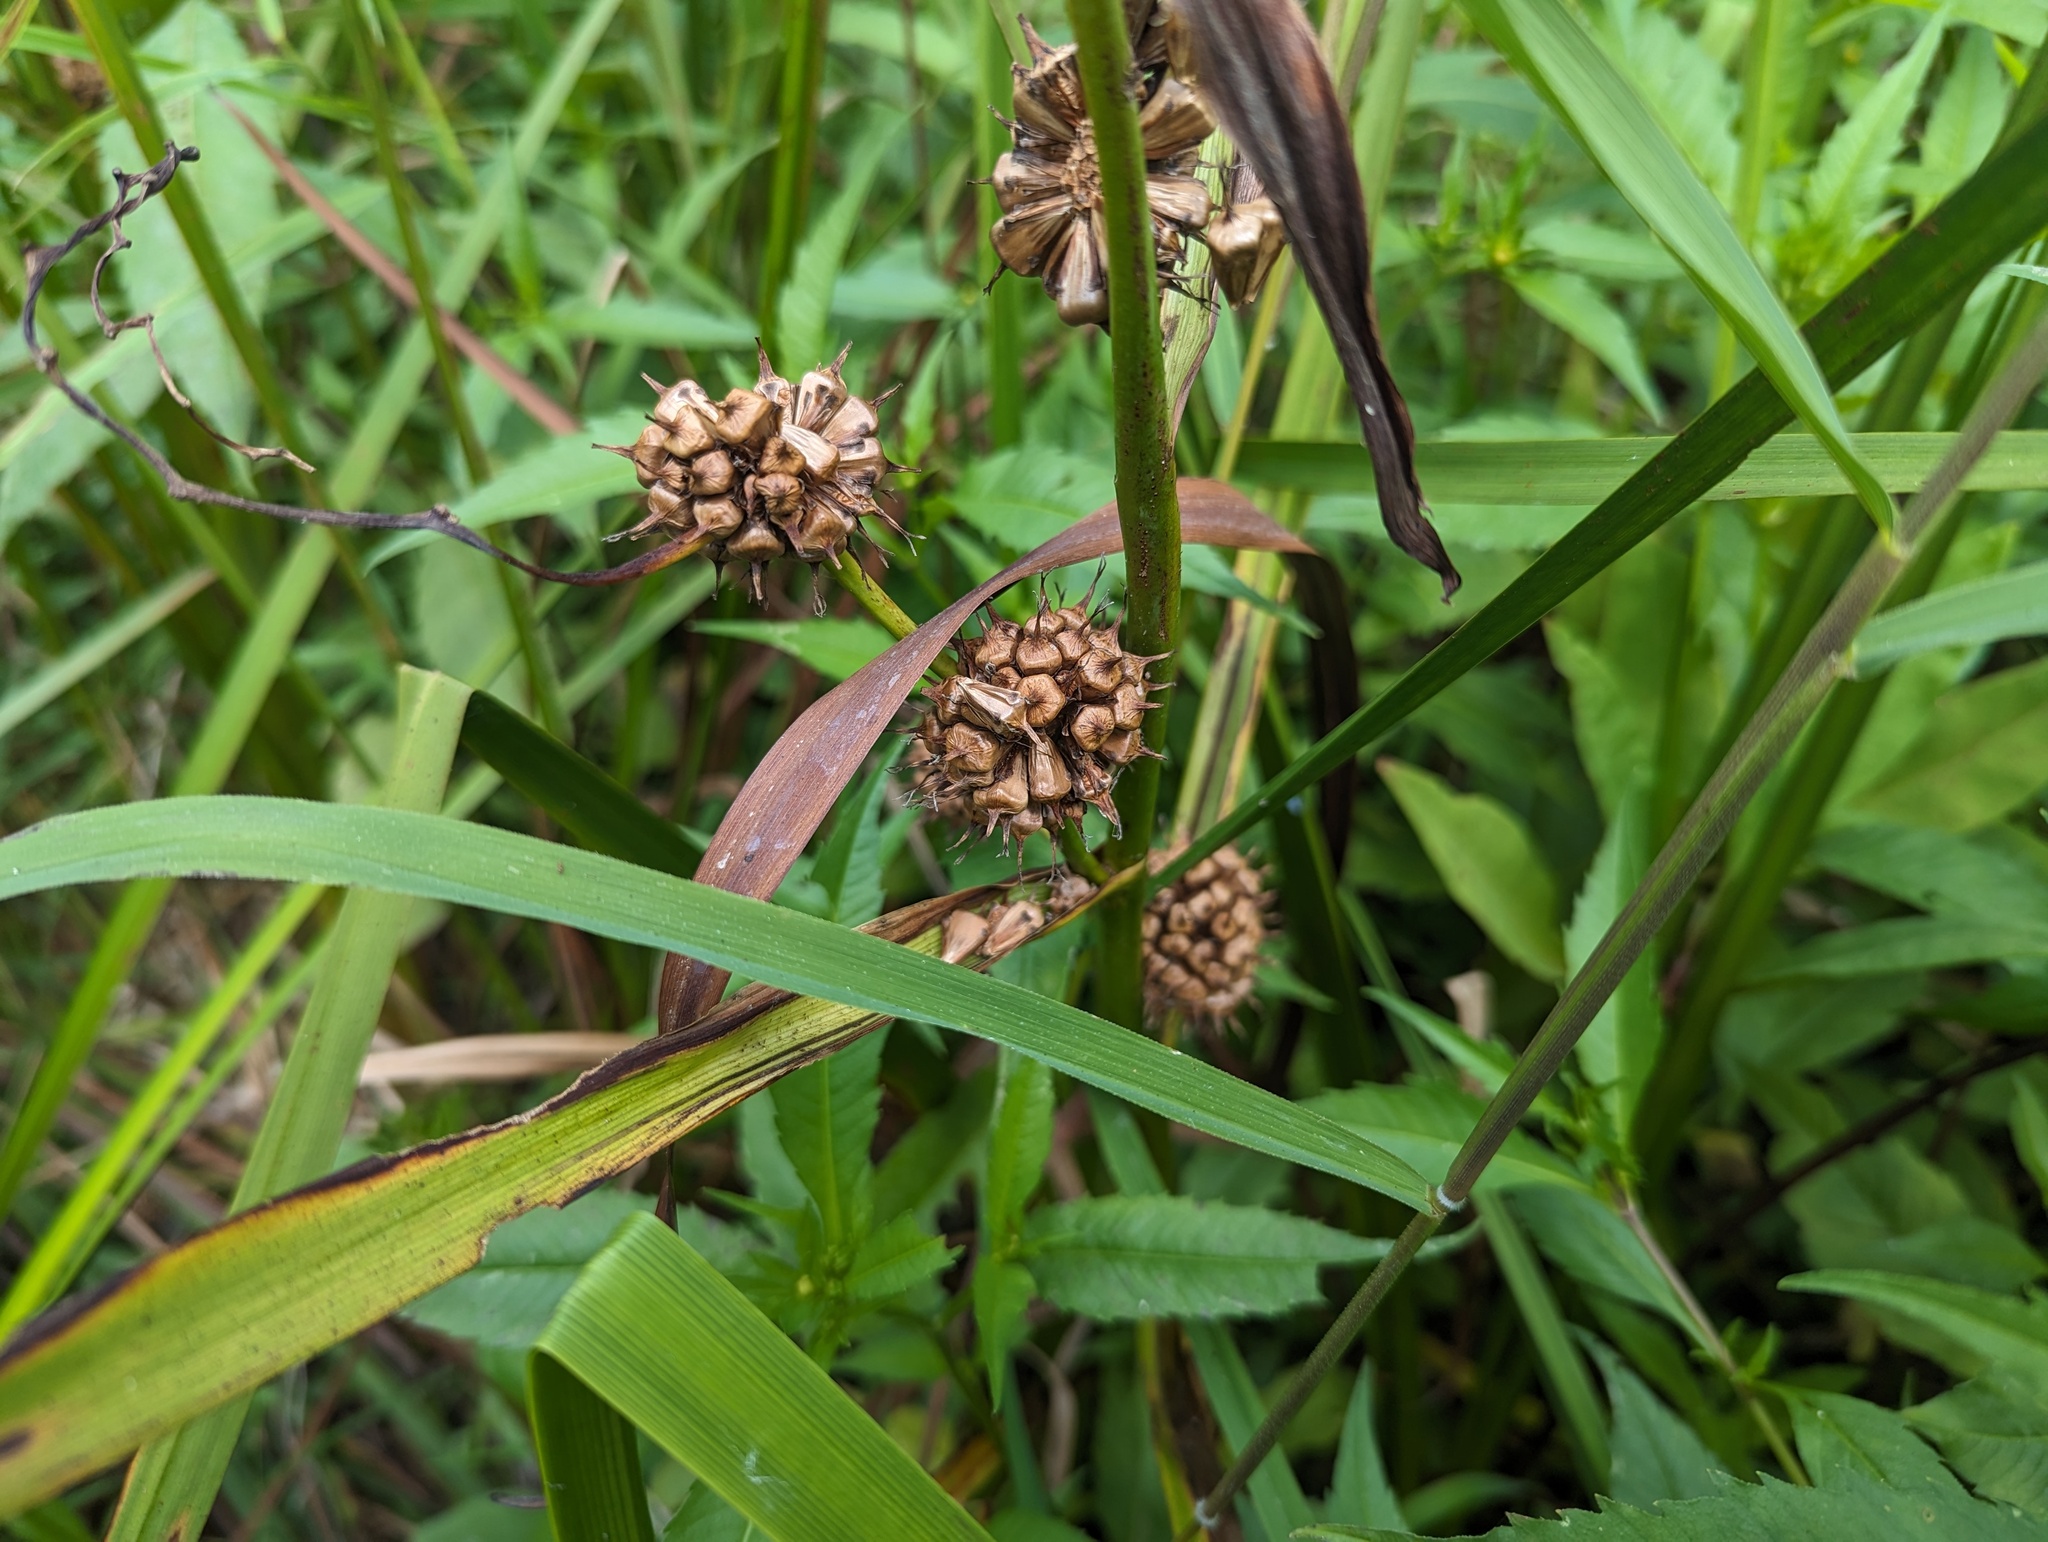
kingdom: Plantae
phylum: Tracheophyta
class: Liliopsida
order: Poales
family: Typhaceae
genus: Sparganium
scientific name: Sparganium eurycarpum
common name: Broad-fruited burreed
